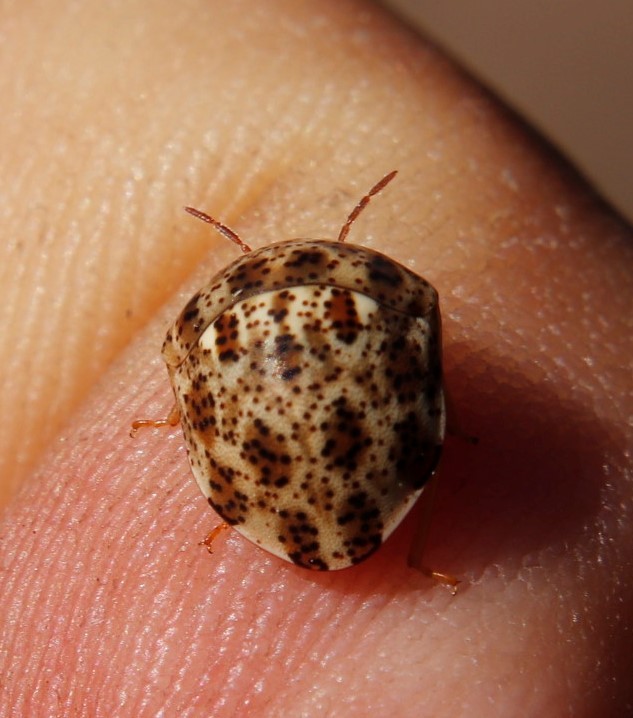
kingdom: Animalia
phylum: Arthropoda
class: Insecta
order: Hemiptera
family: Scutelleridae
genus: Sphaerocoris
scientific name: Sphaerocoris
